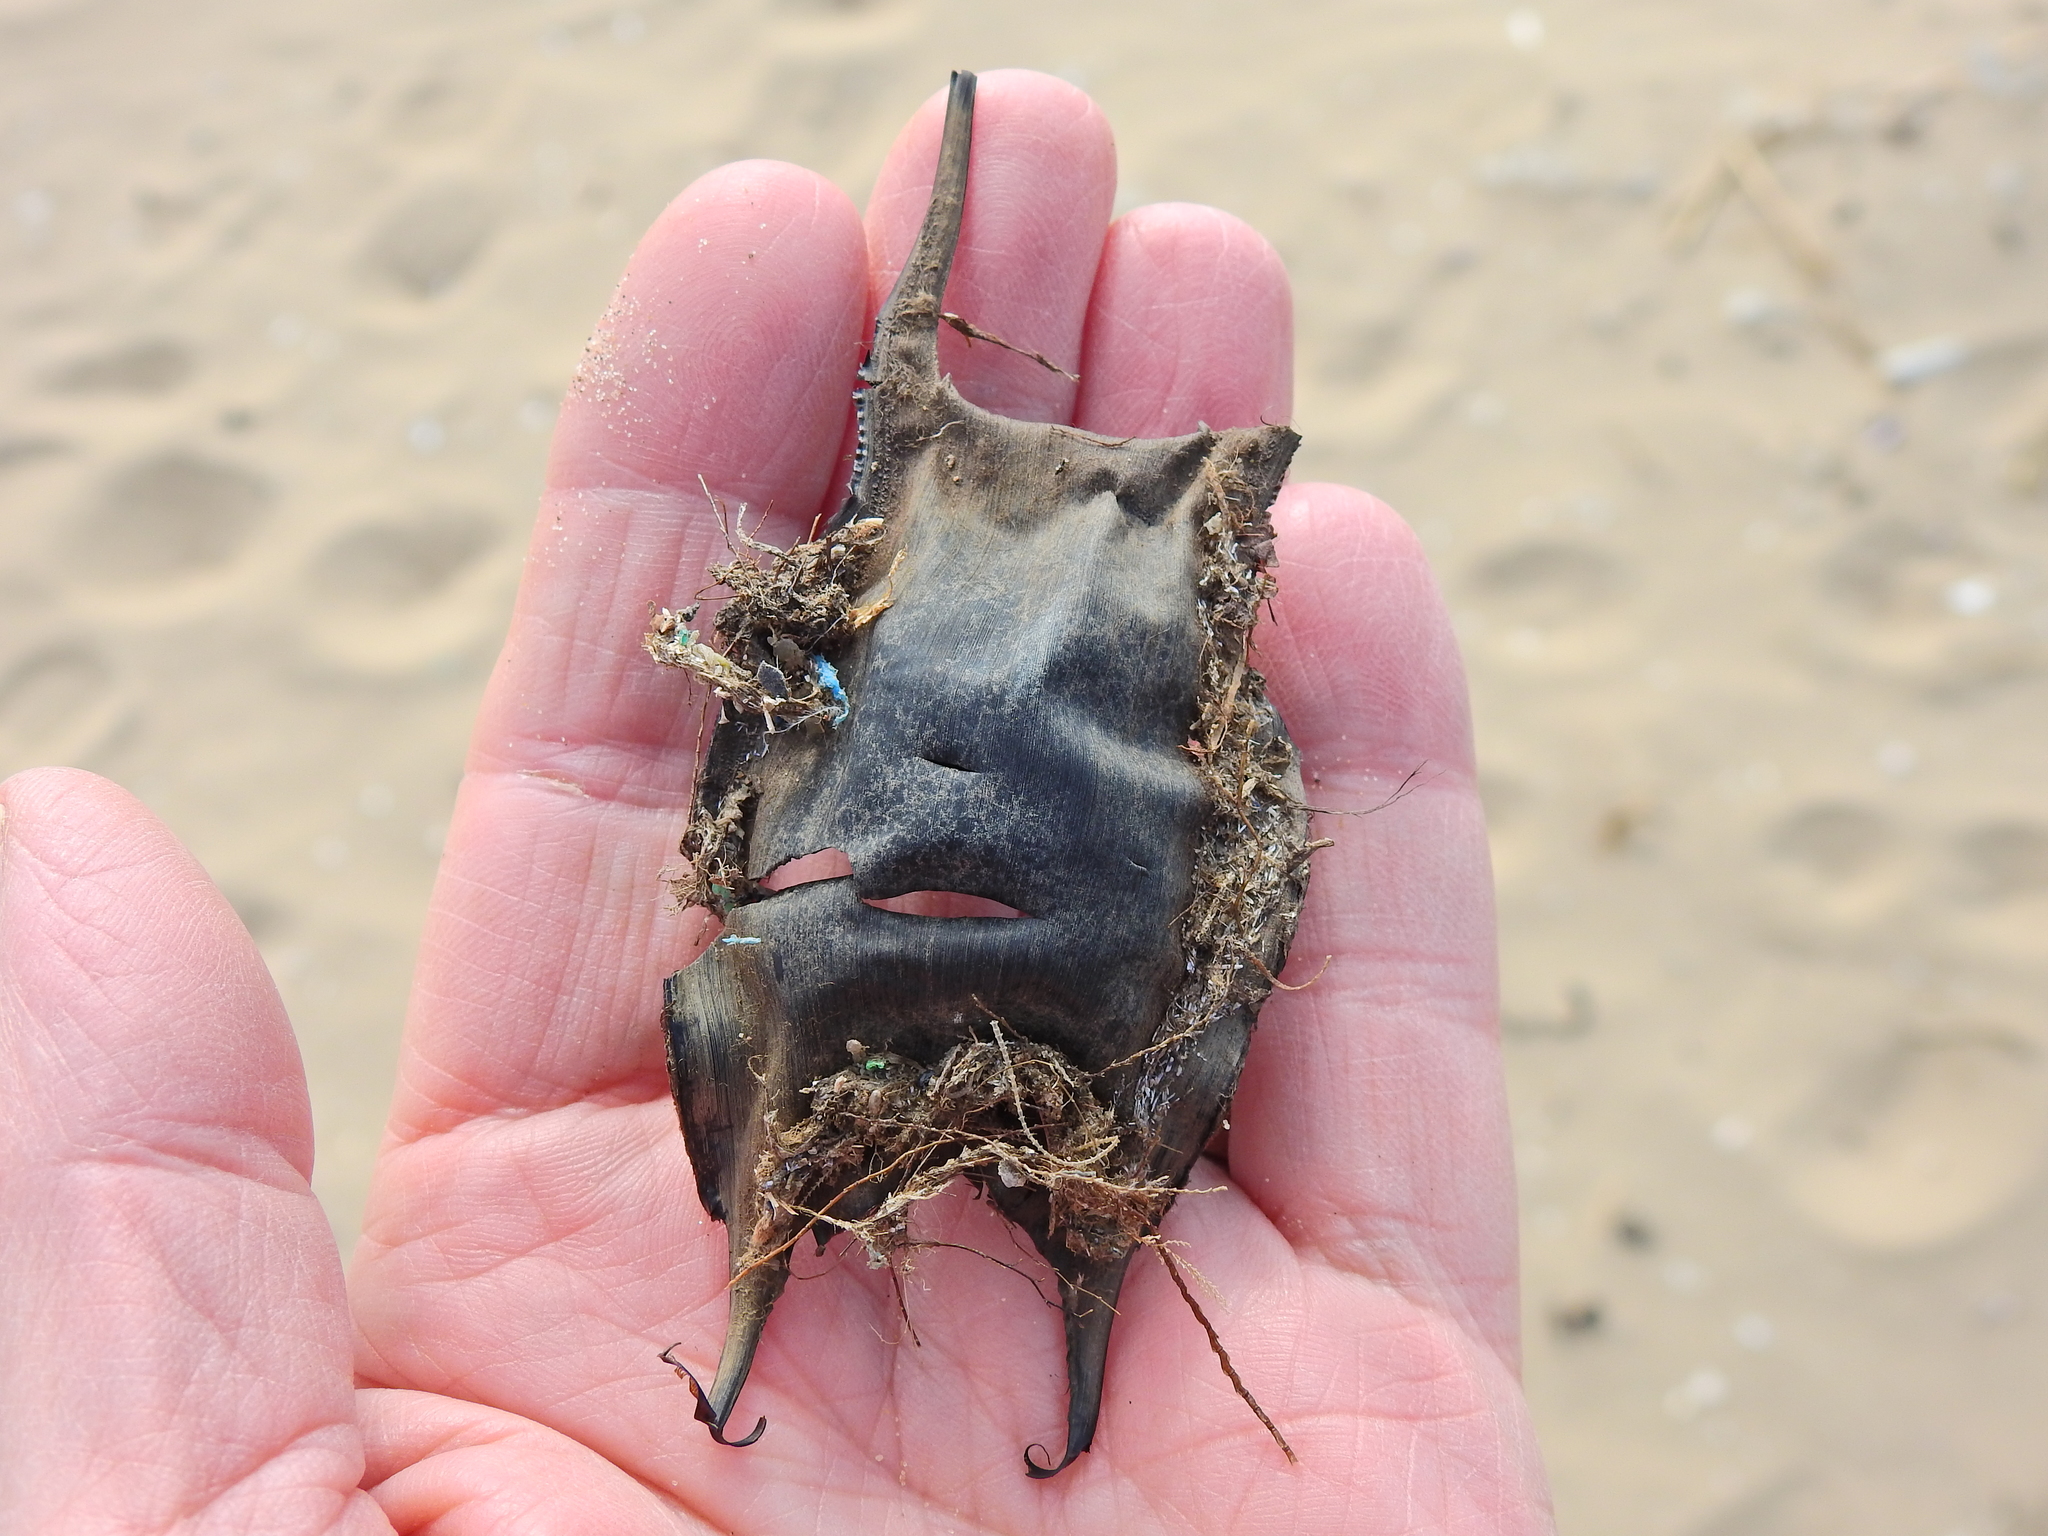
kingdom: Animalia
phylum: Chordata
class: Elasmobranchii
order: Rajiformes
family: Rajidae
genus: Raja
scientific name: Raja clavata
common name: Thornback ray
